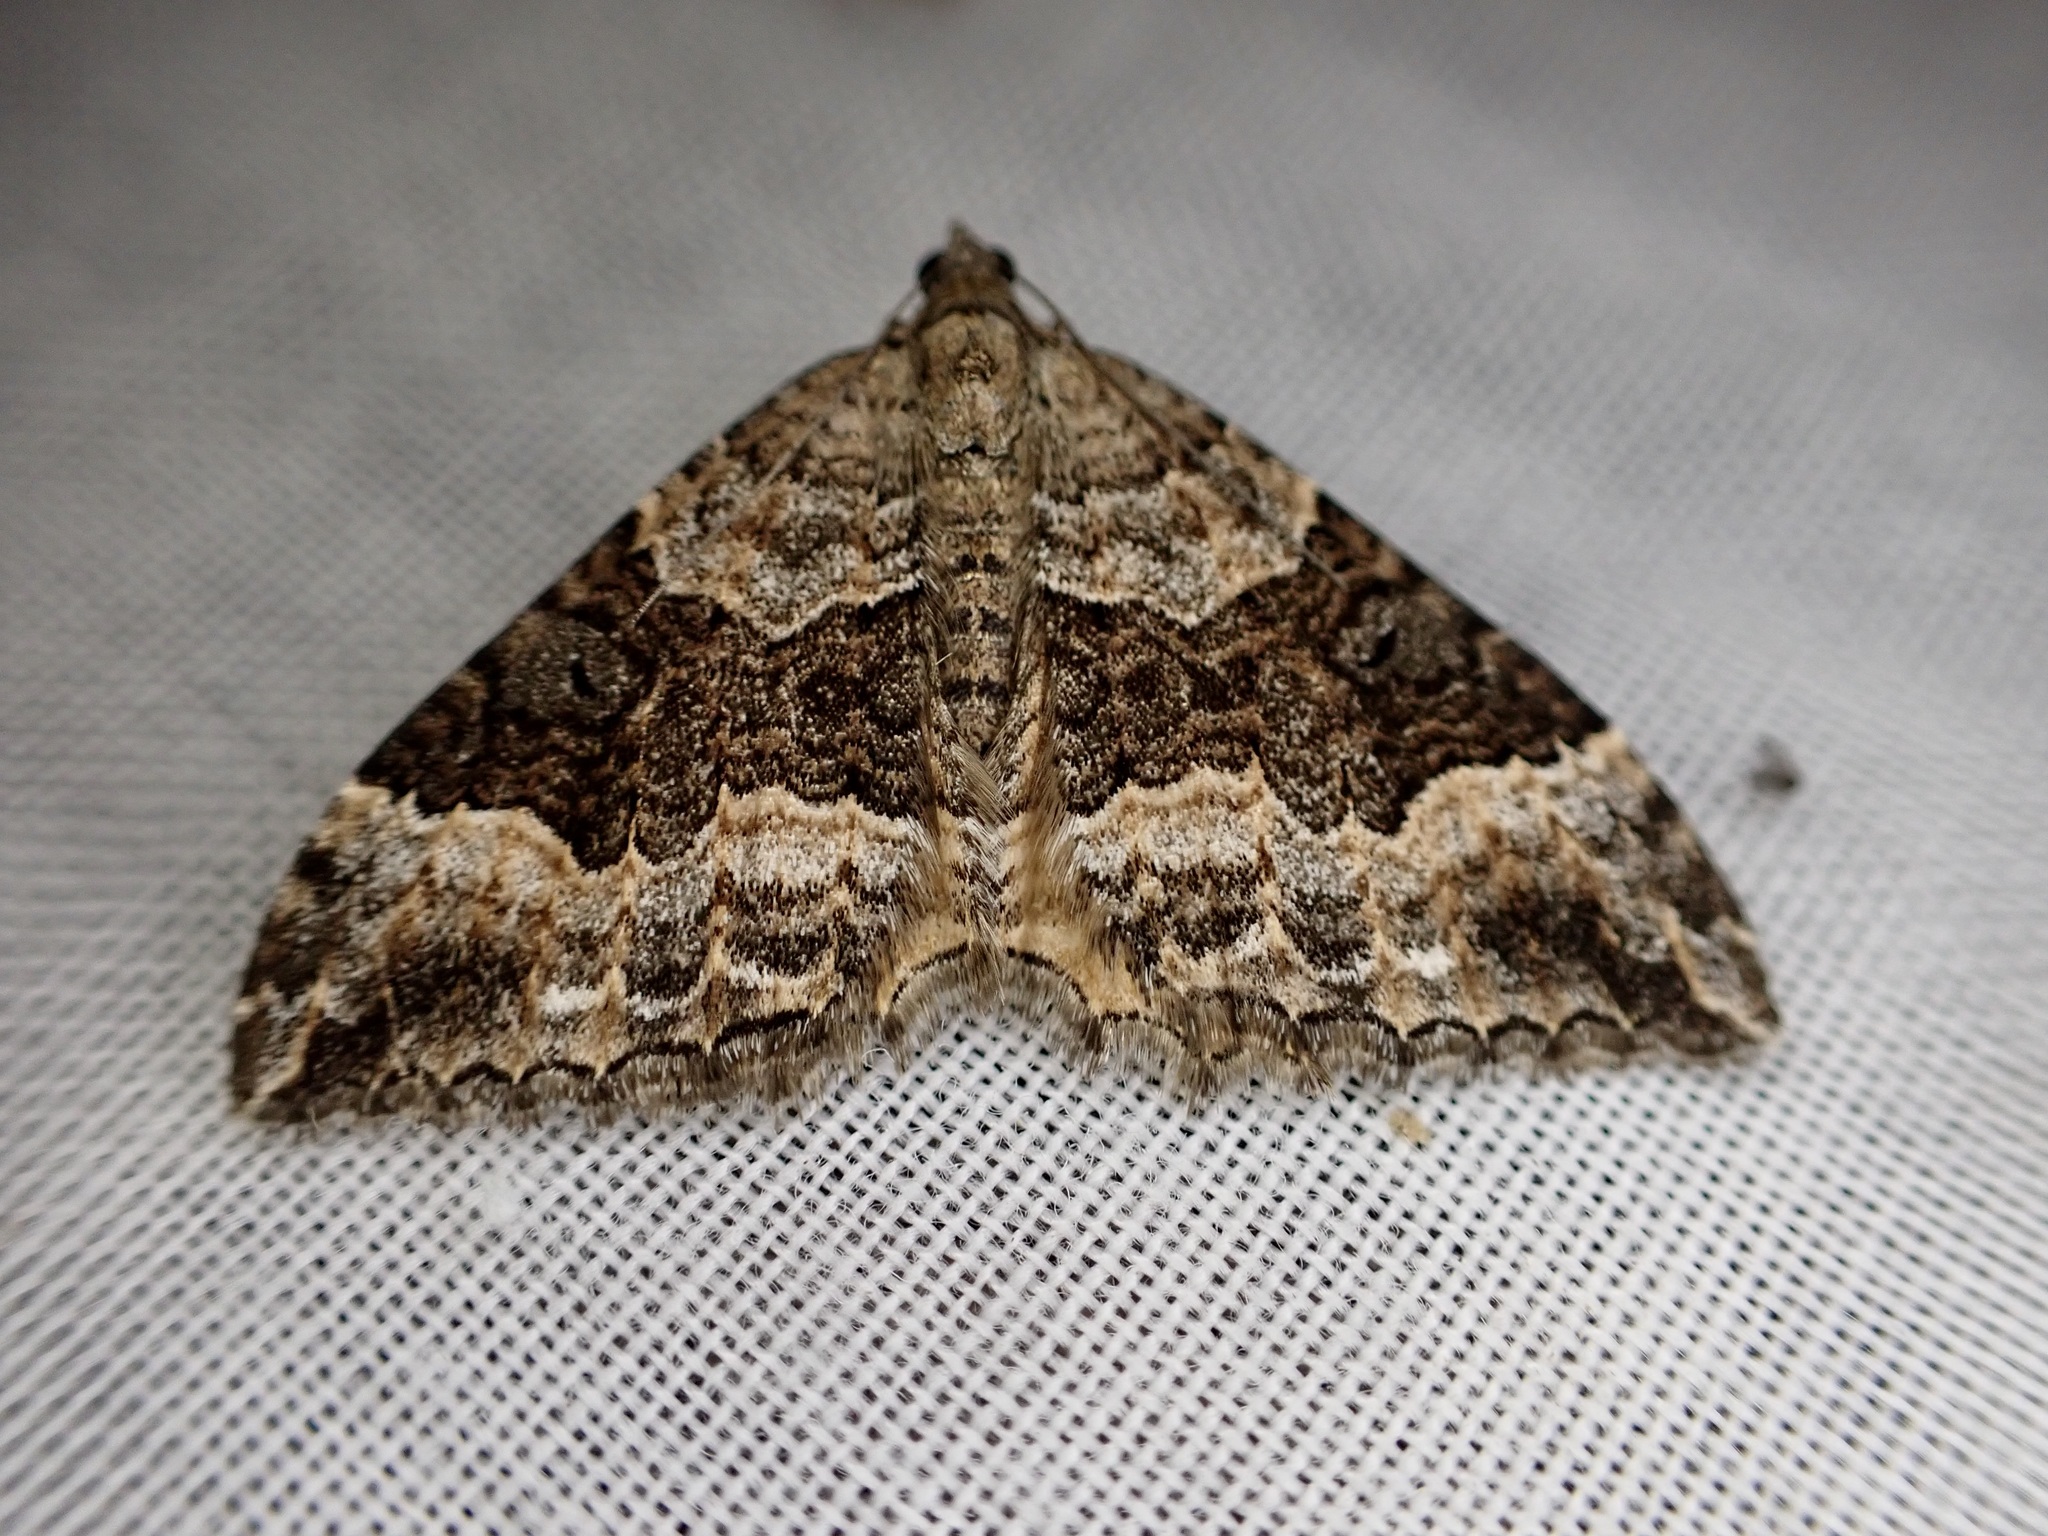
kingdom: Animalia
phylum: Arthropoda
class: Insecta
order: Lepidoptera
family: Geometridae
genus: Hydriomena
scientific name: Hydriomena deltoidata
